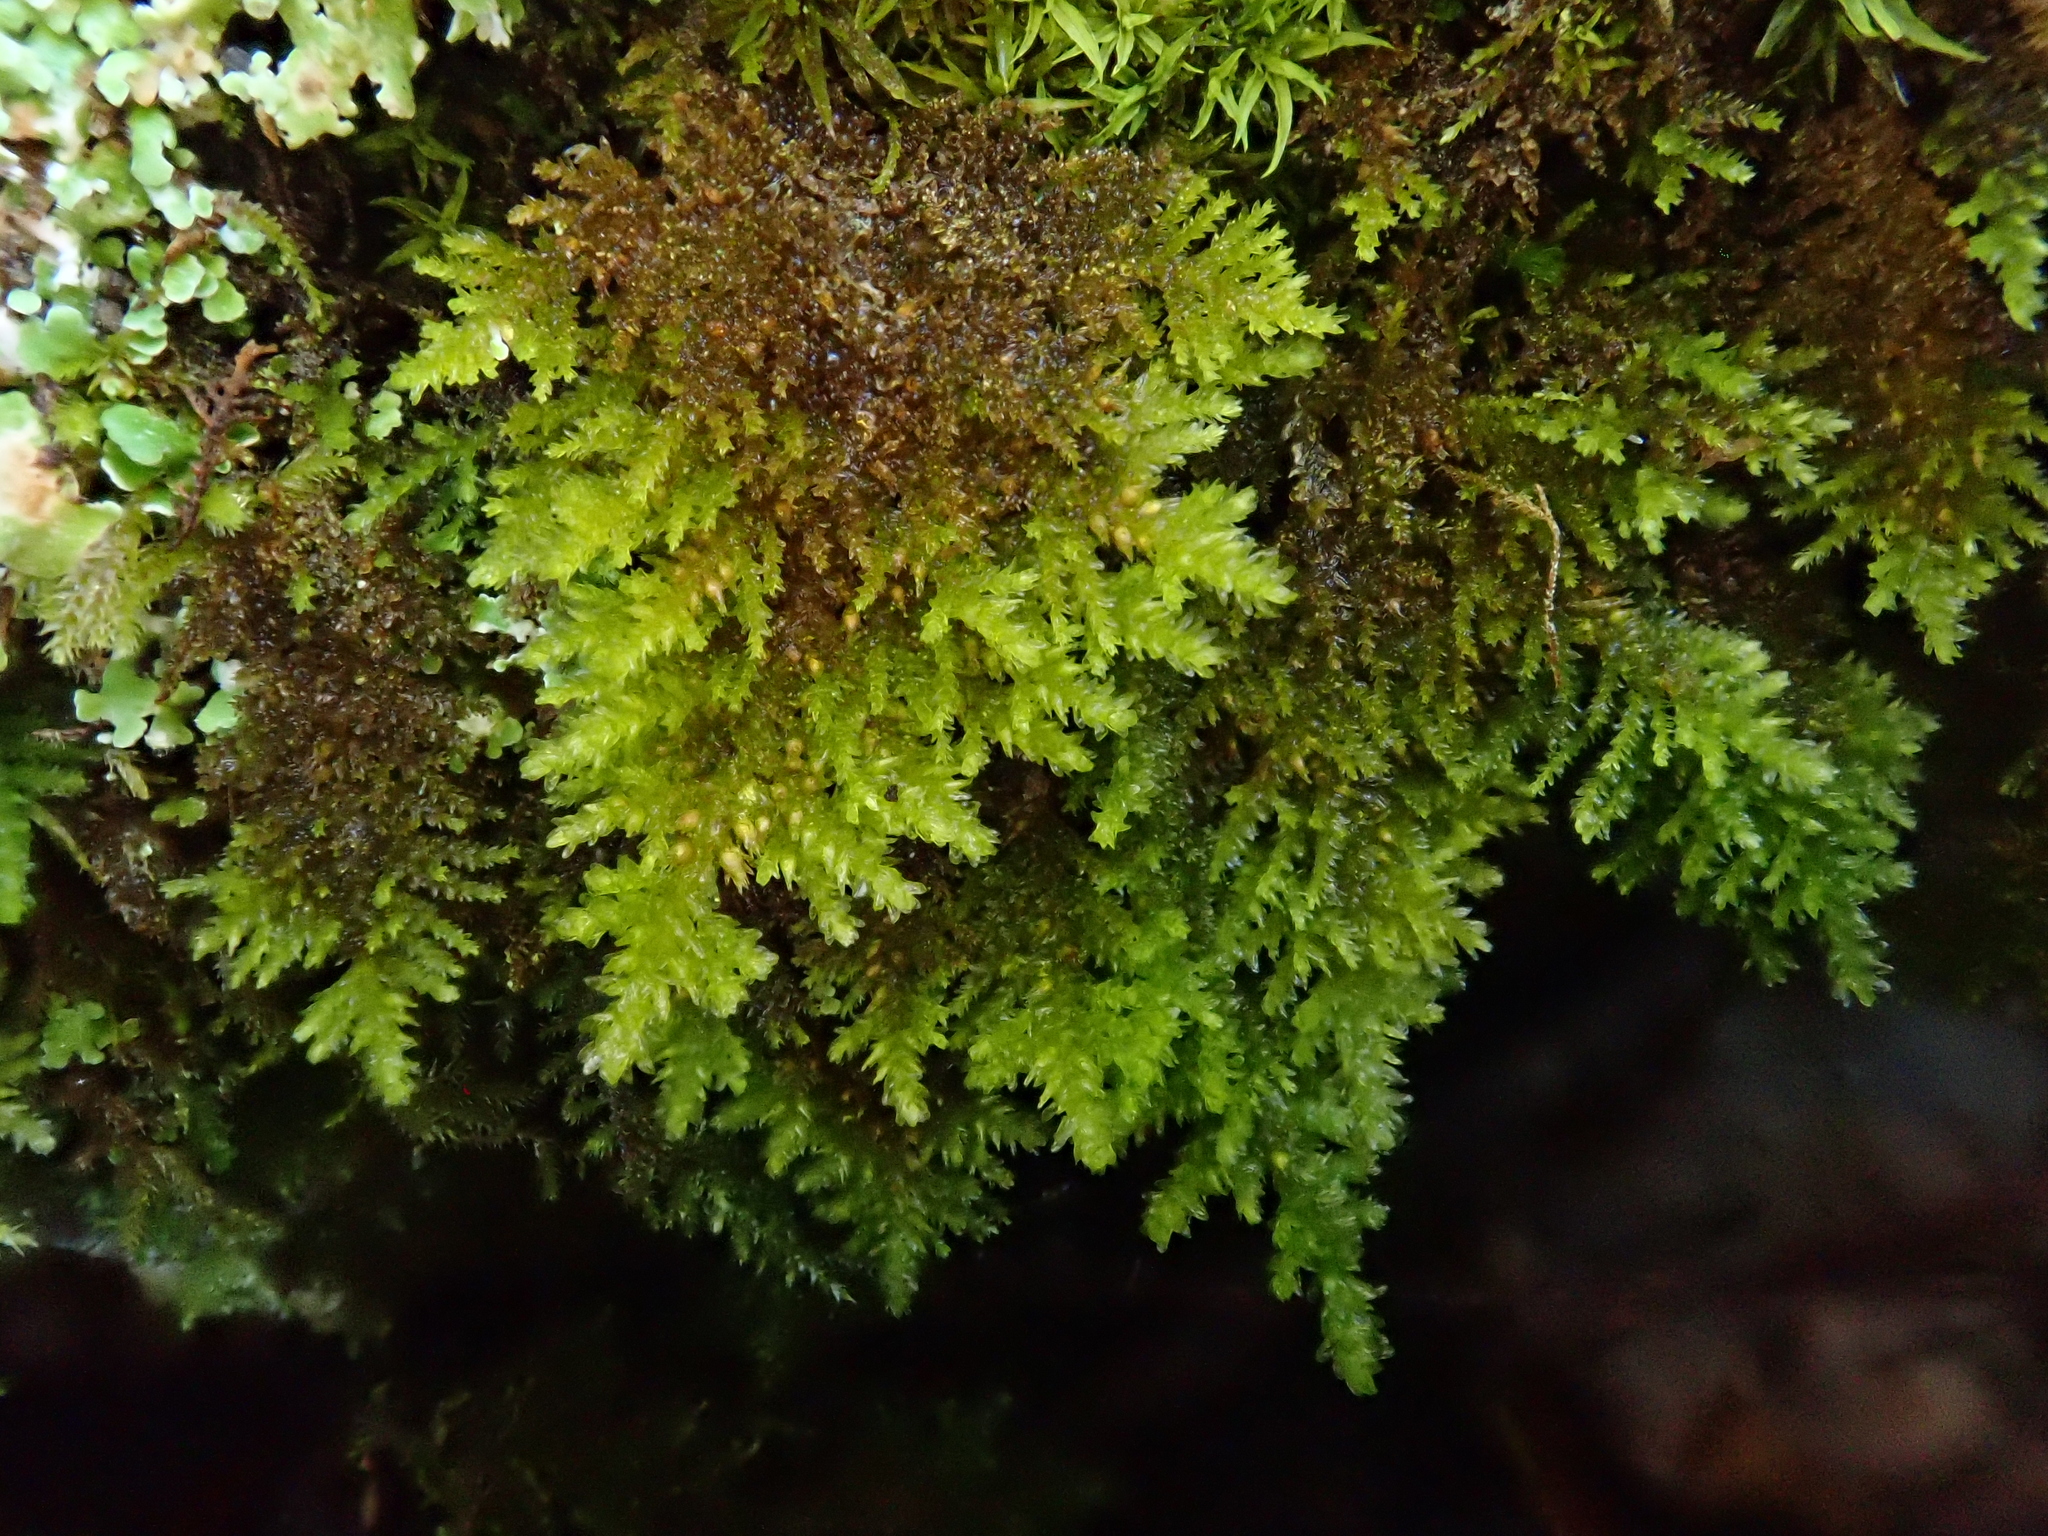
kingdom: Plantae
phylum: Bryophyta
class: Bryopsida
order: Hypnales
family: Neckeraceae
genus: Leptodon
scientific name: Leptodon smithii
